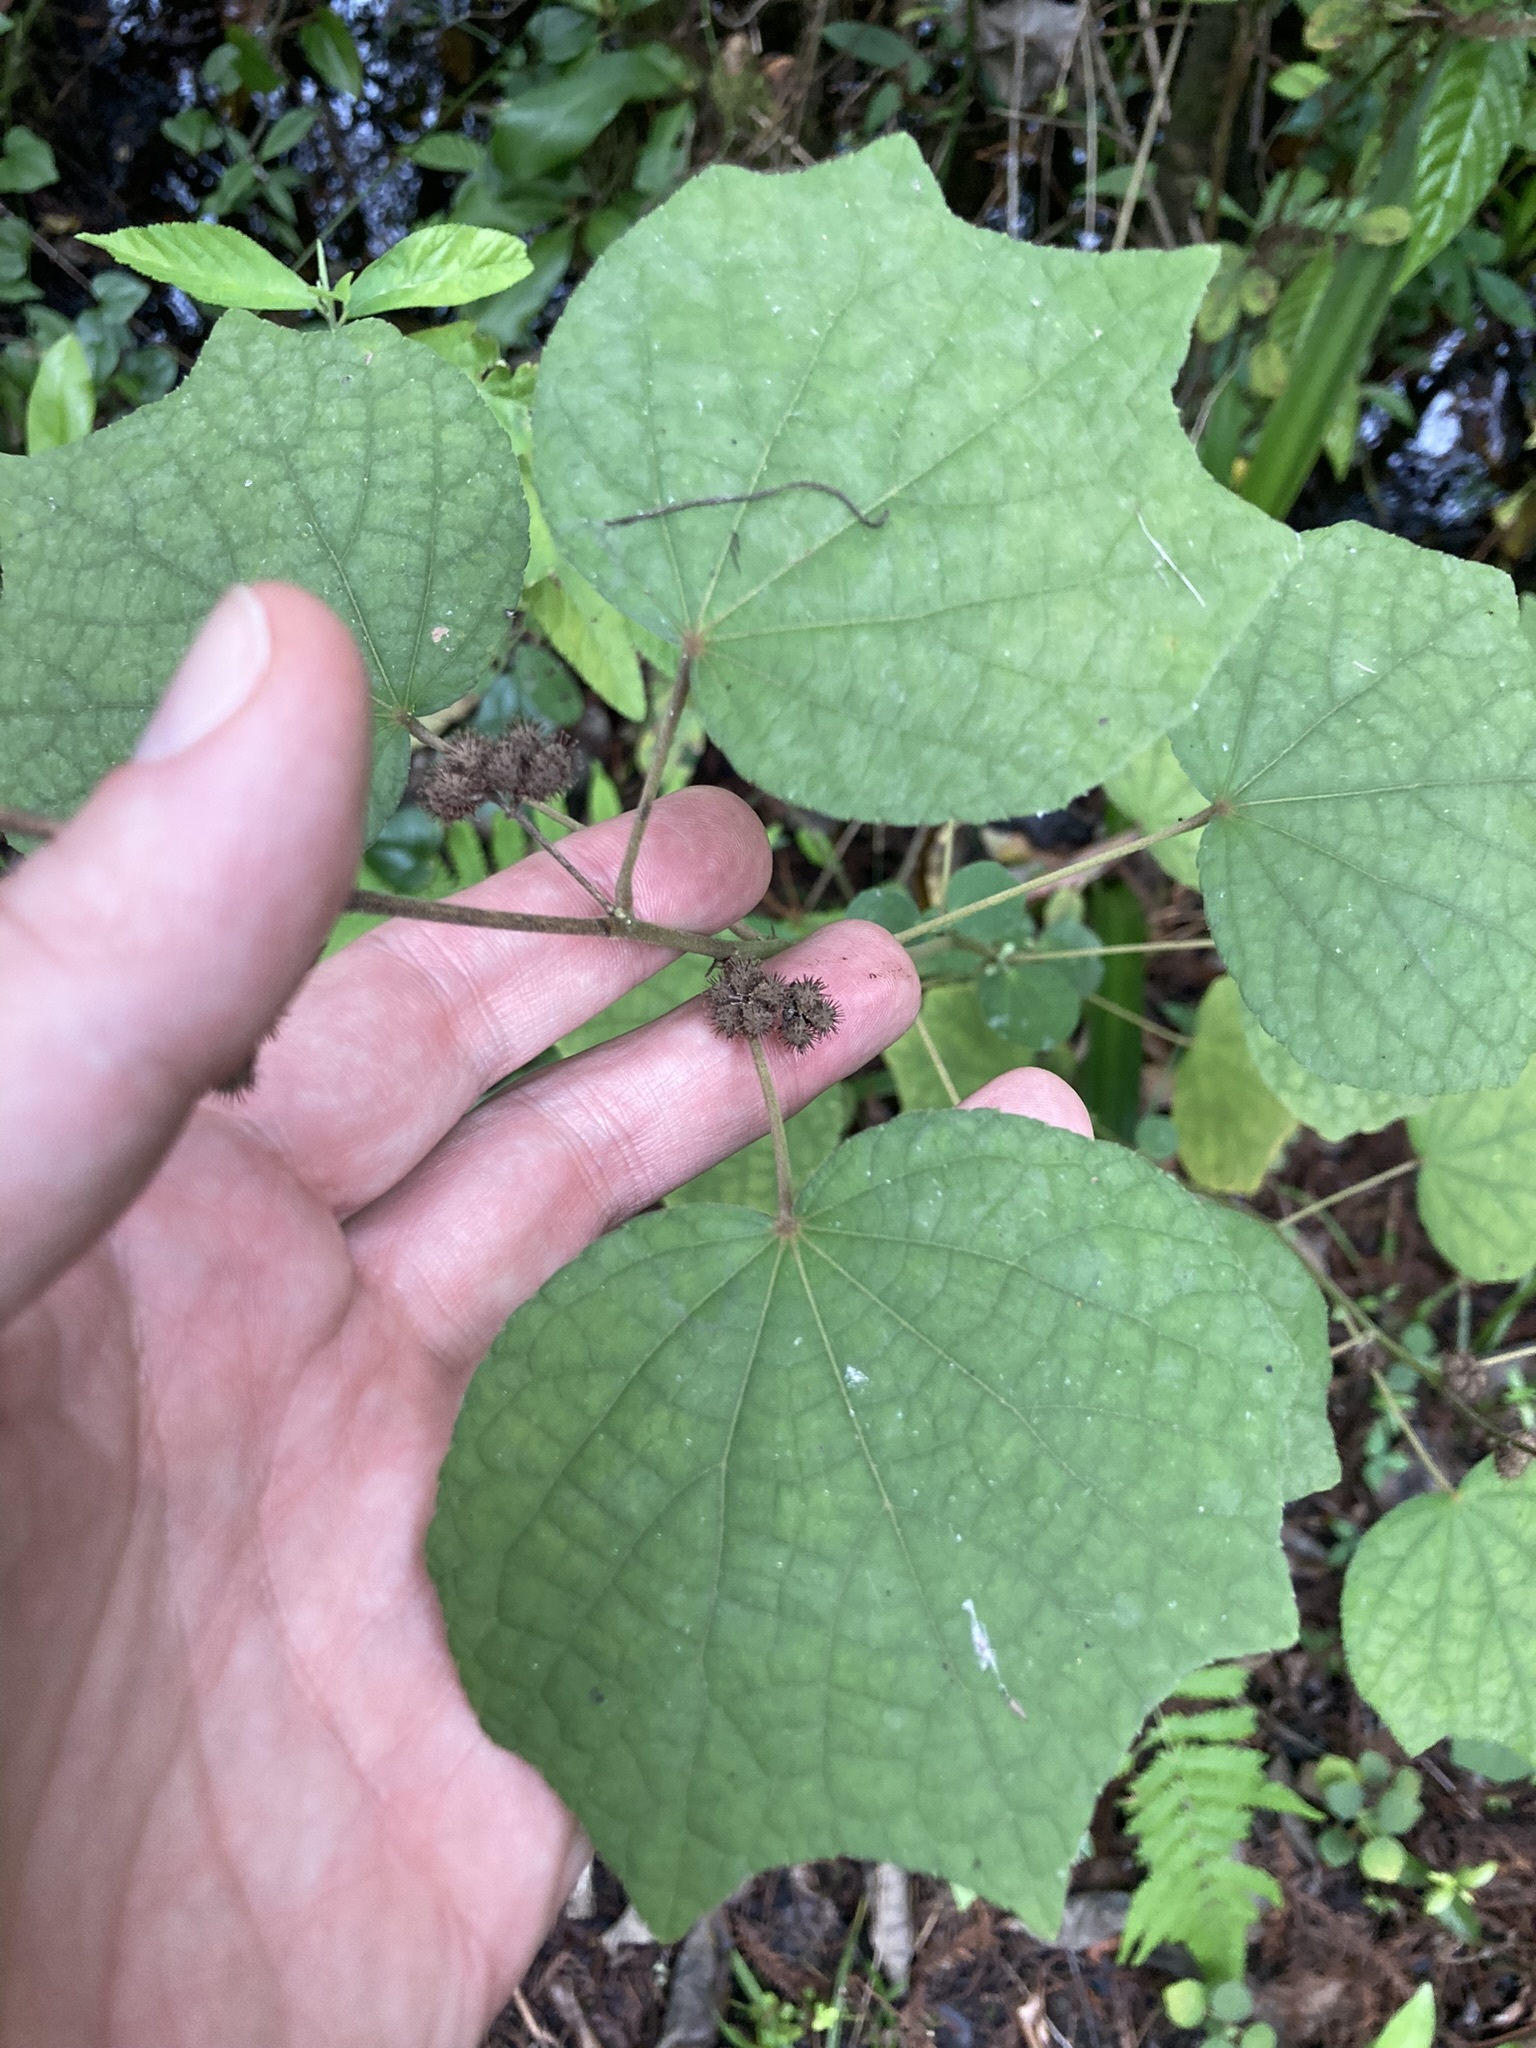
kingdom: Plantae
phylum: Tracheophyta
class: Magnoliopsida
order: Malvales
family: Malvaceae
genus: Urena
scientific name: Urena lobata
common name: Caesarweed
